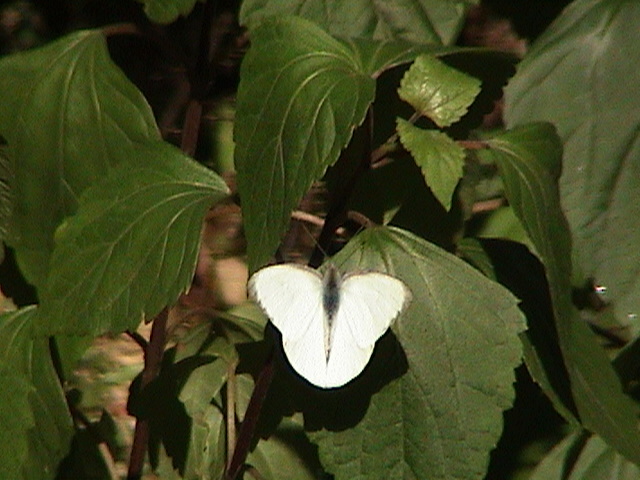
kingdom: Animalia
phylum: Arthropoda
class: Insecta
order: Lepidoptera
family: Pieridae
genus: Appias
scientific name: Appias albina
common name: Common albatross
